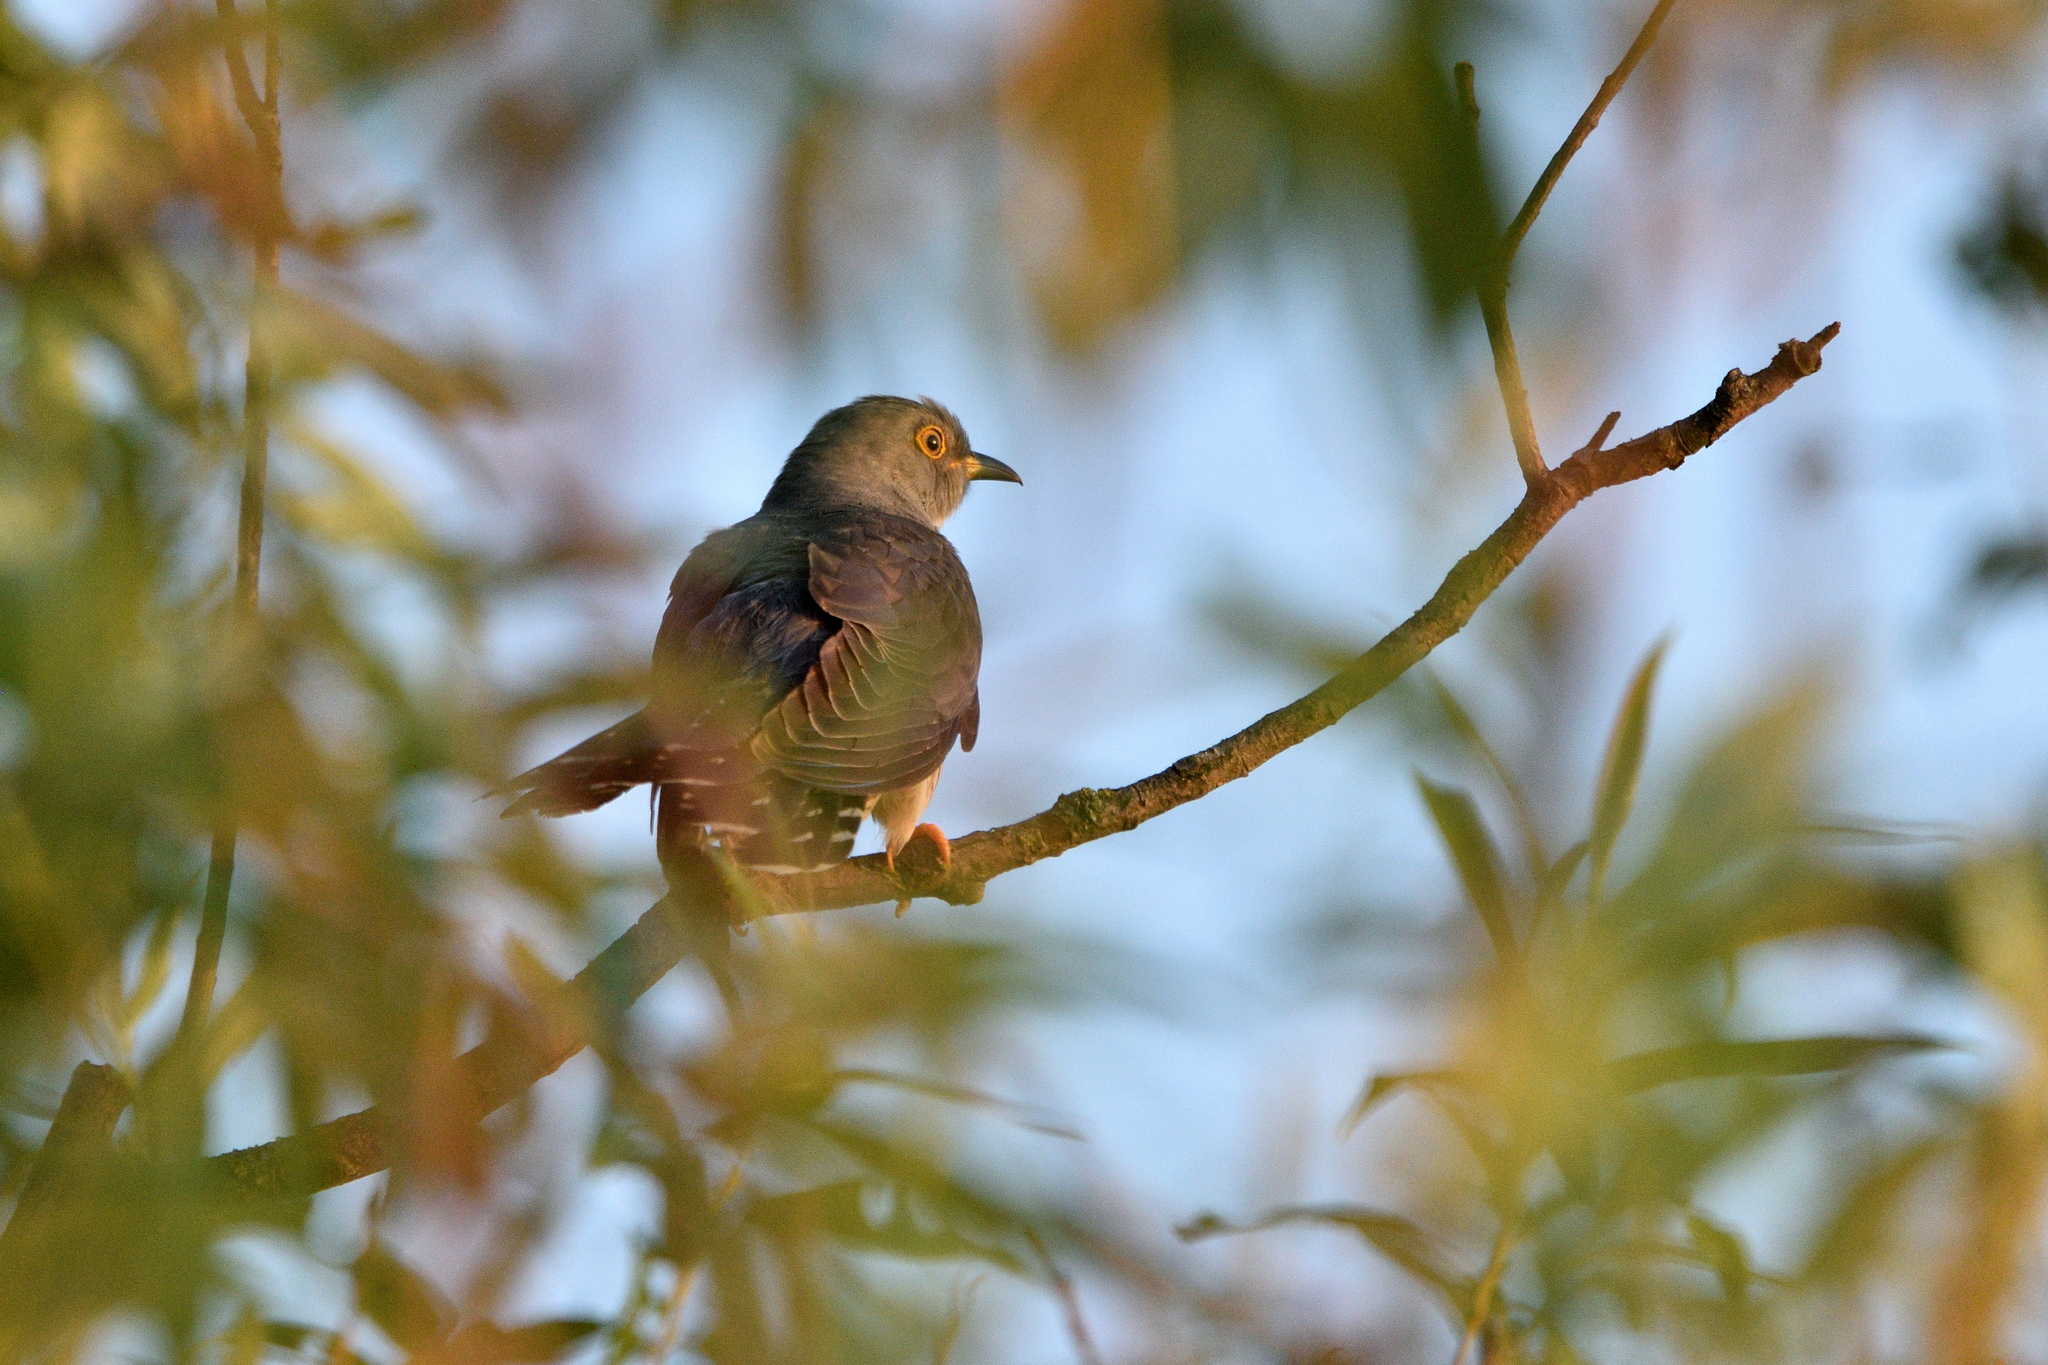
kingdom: Animalia
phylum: Chordata
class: Aves
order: Cuculiformes
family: Cuculidae
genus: Cuculus
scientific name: Cuculus canorus
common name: Common cuckoo
